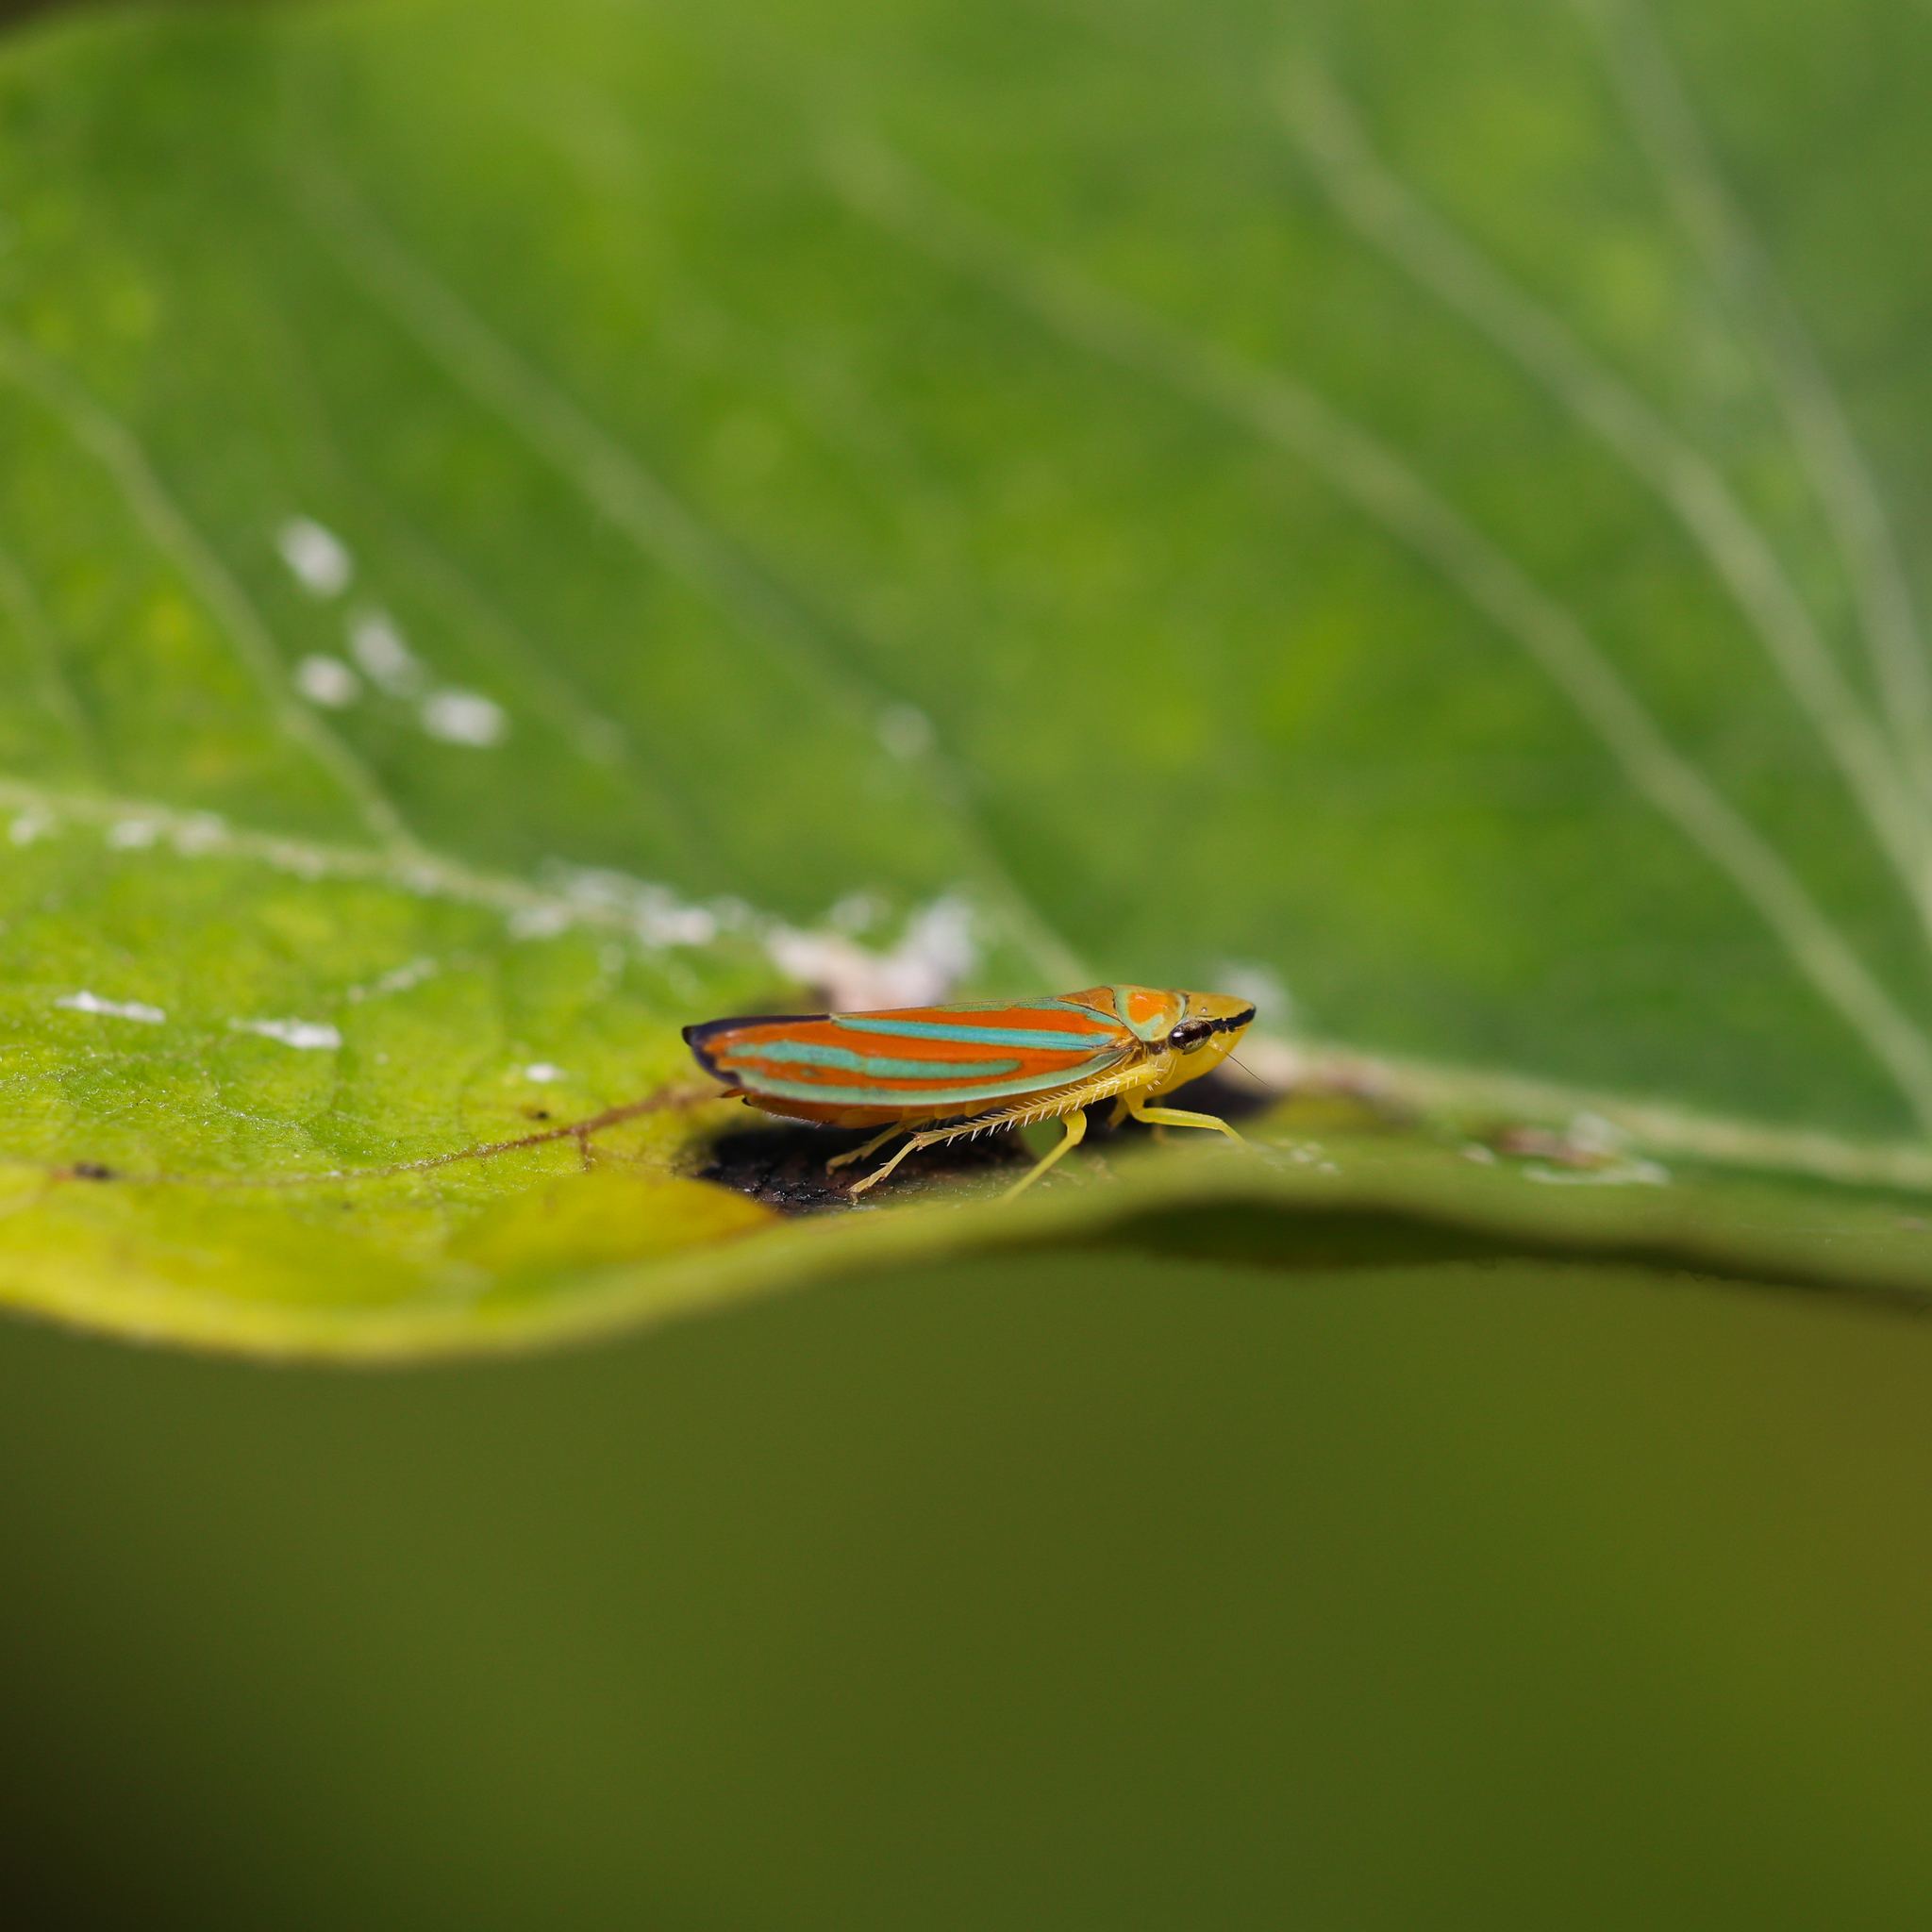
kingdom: Animalia
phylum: Arthropoda
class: Insecta
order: Hemiptera
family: Cicadellidae
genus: Graphocephala
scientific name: Graphocephala coccinea
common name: Candy-striped leafhopper
